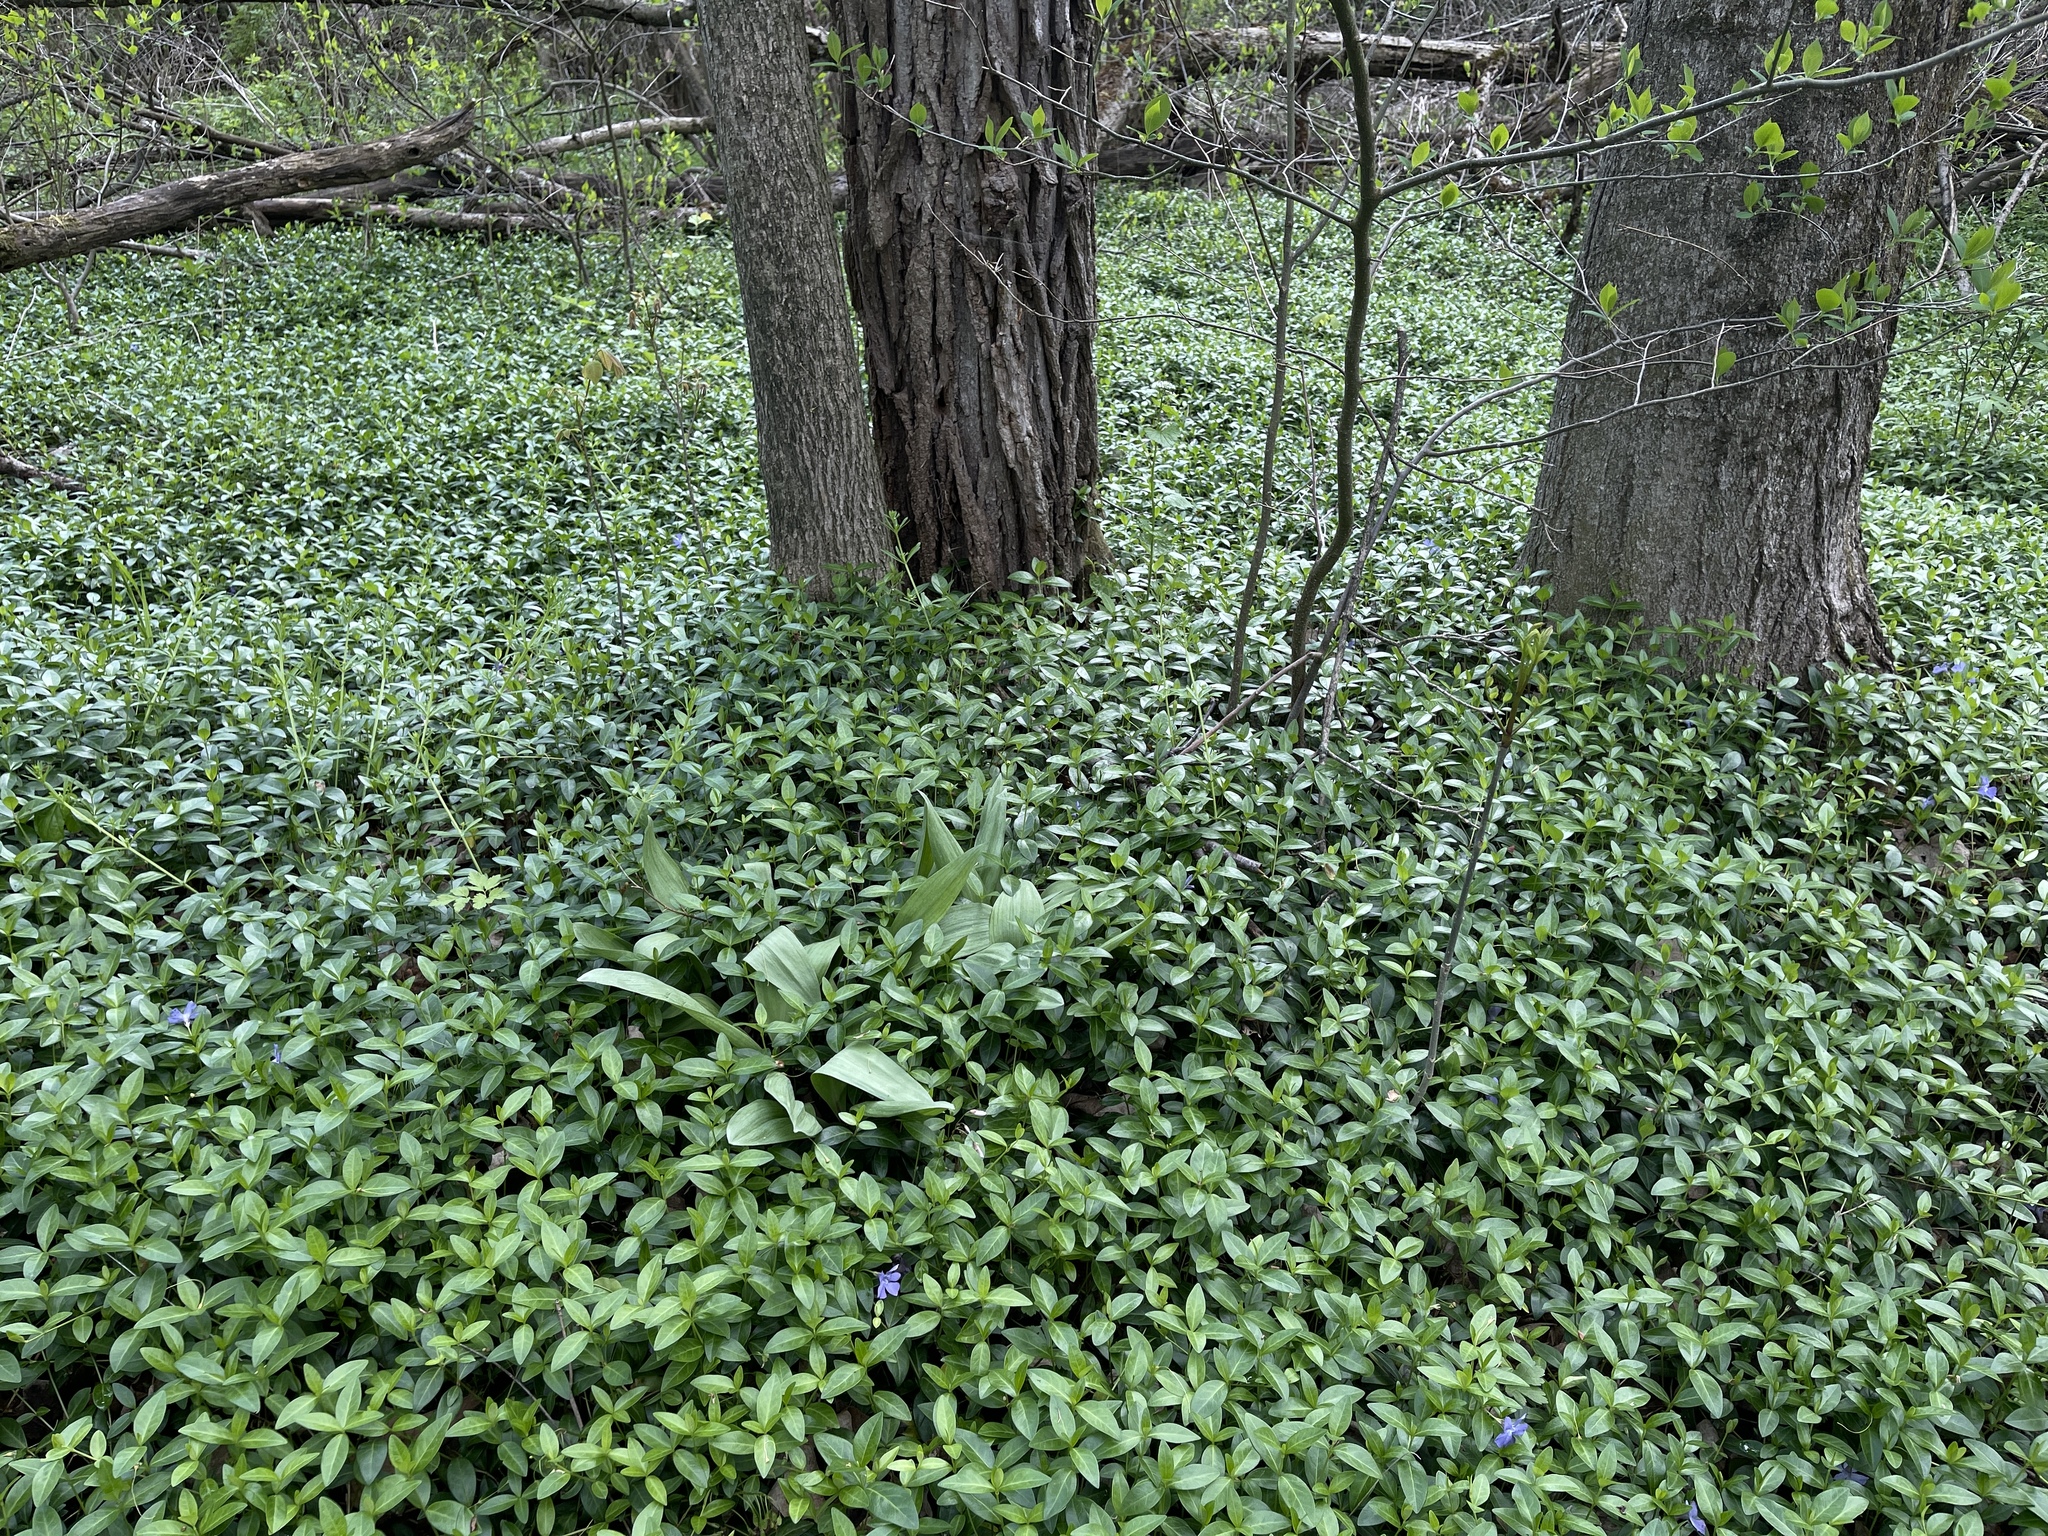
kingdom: Plantae
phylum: Tracheophyta
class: Magnoliopsida
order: Gentianales
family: Apocynaceae
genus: Vinca
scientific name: Vinca minor
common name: Lesser periwinkle
